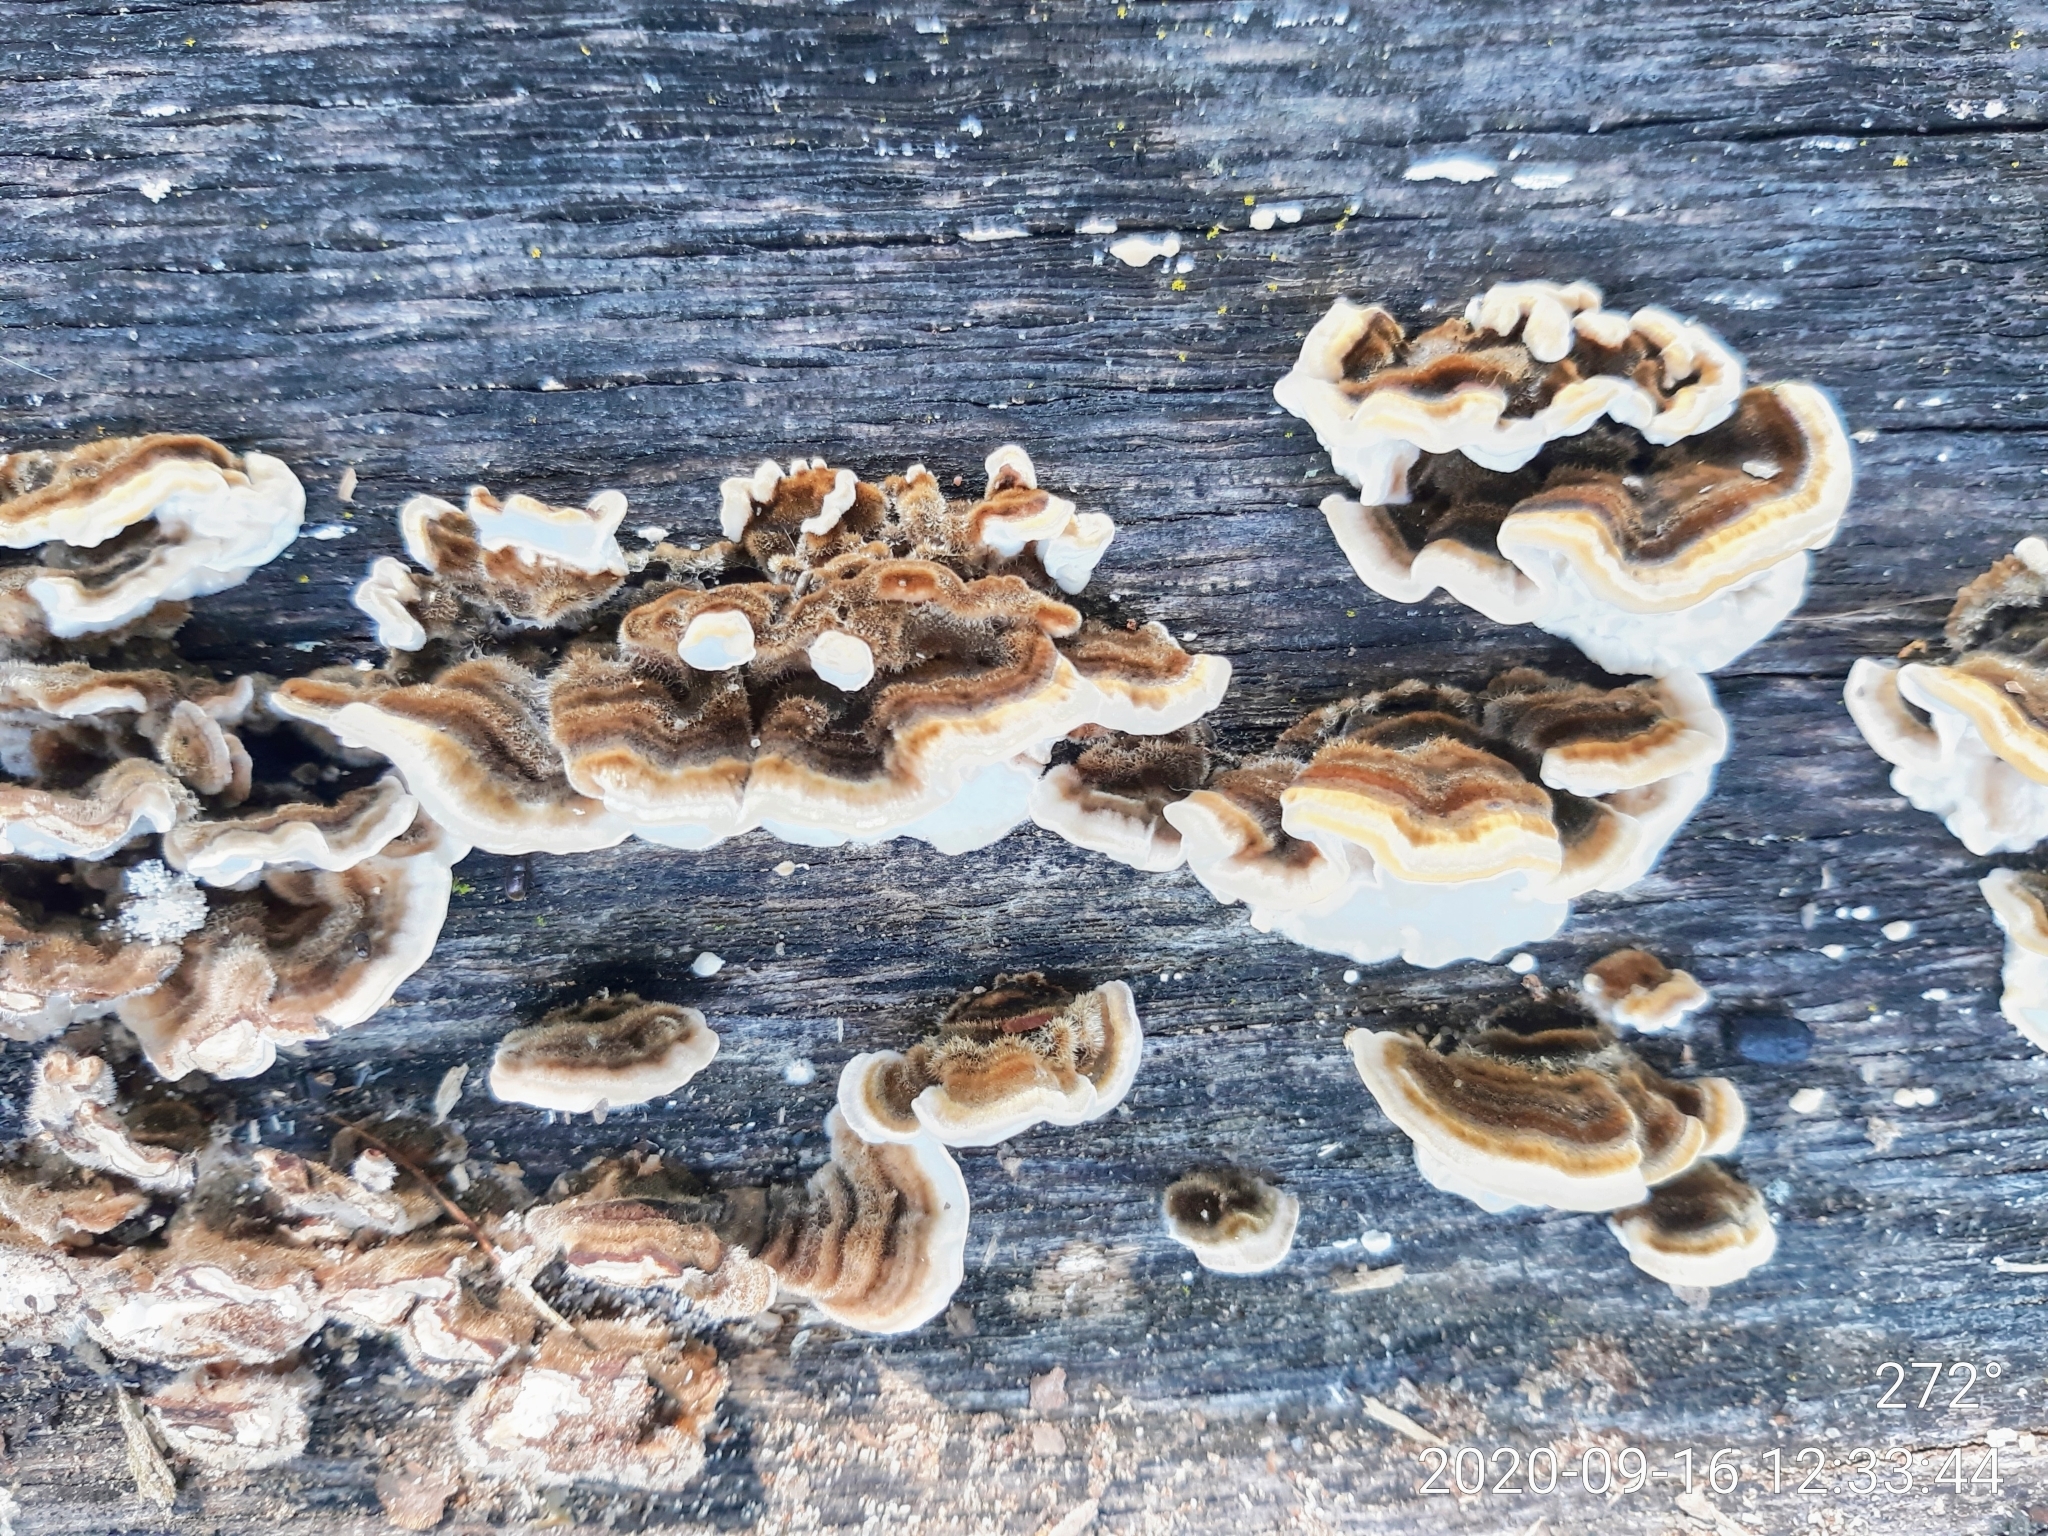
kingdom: Fungi
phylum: Basidiomycota
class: Agaricomycetes
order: Polyporales
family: Polyporaceae
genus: Trametes
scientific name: Trametes versicolor
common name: Turkeytail
